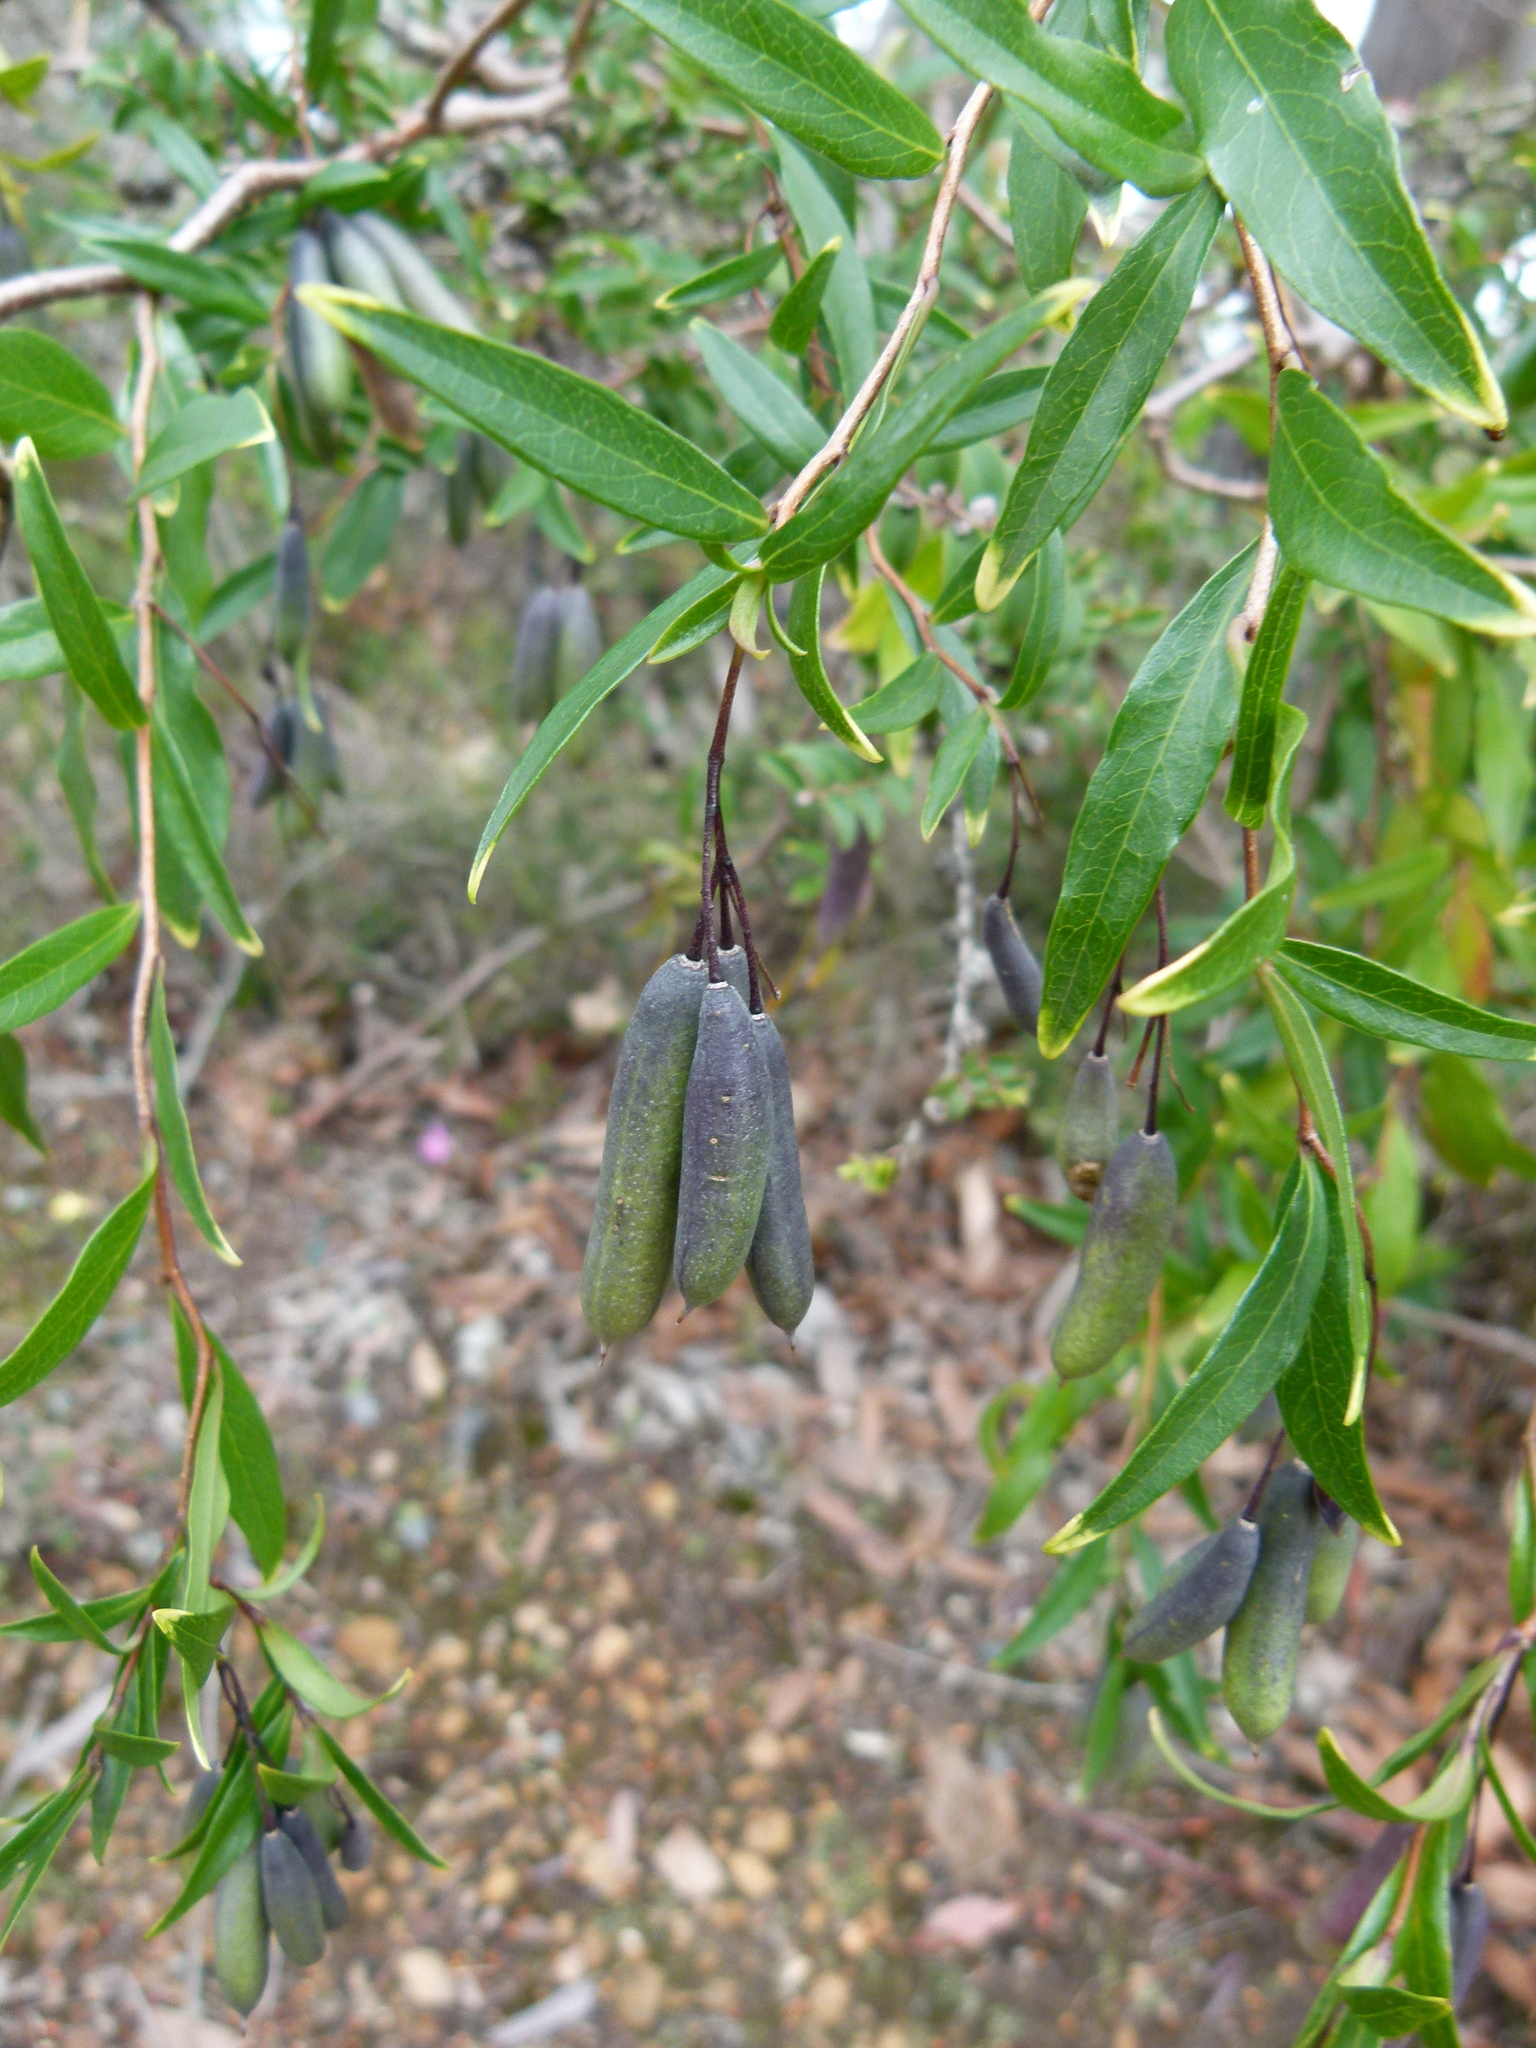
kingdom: Plantae
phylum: Tracheophyta
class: Magnoliopsida
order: Apiales
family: Pittosporaceae
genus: Billardiera
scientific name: Billardiera heterophylla
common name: Bluebell creeper
